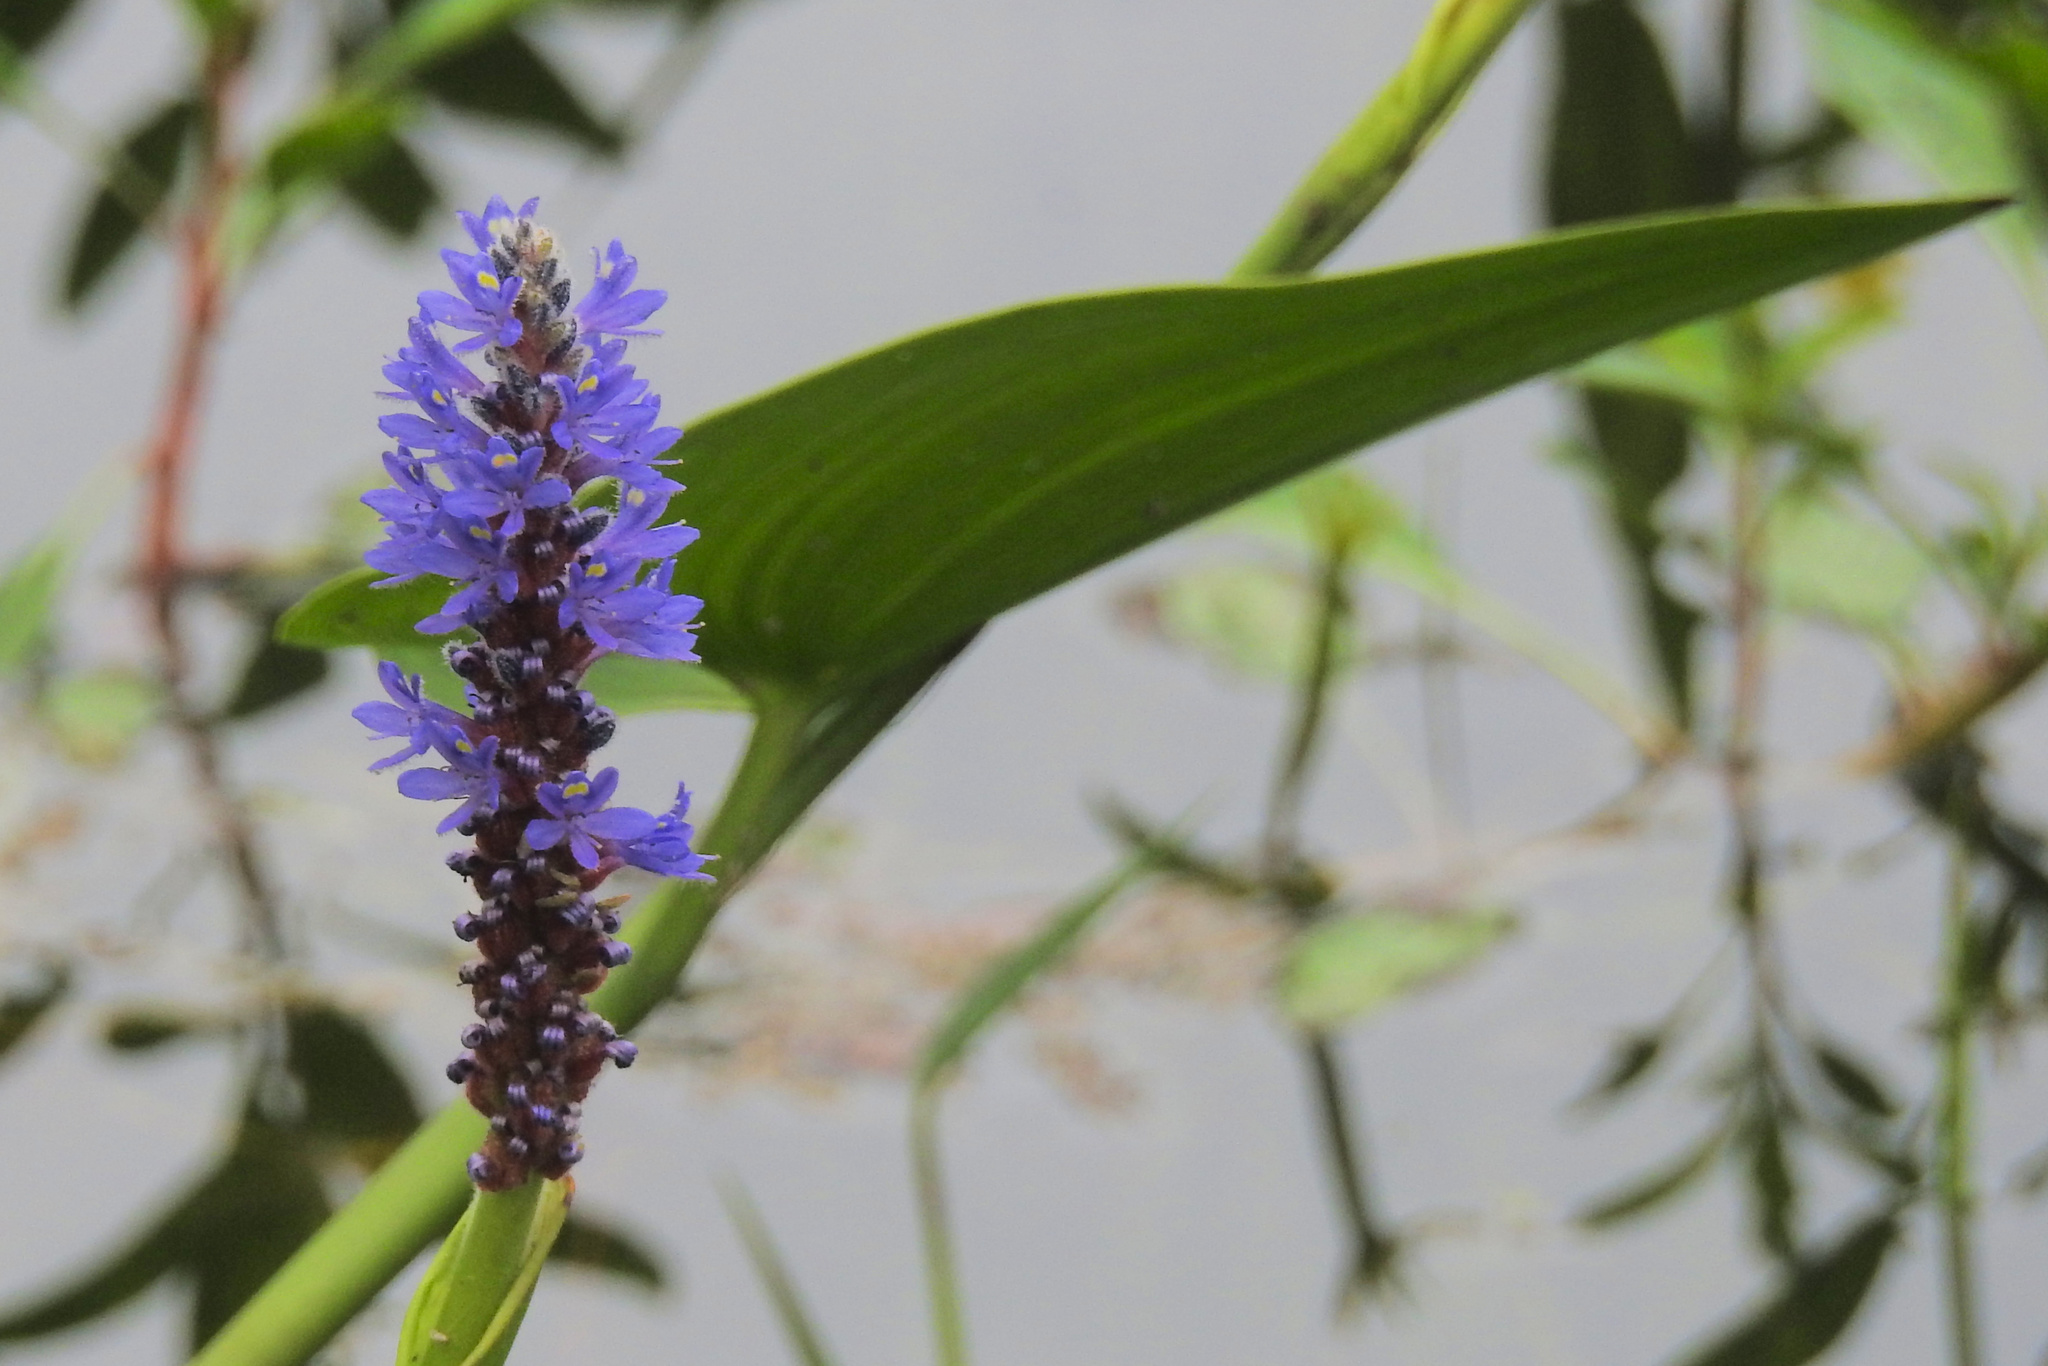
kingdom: Plantae
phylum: Tracheophyta
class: Liliopsida
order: Commelinales
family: Pontederiaceae
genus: Pontederia
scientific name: Pontederia cordata
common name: Pickerelweed
